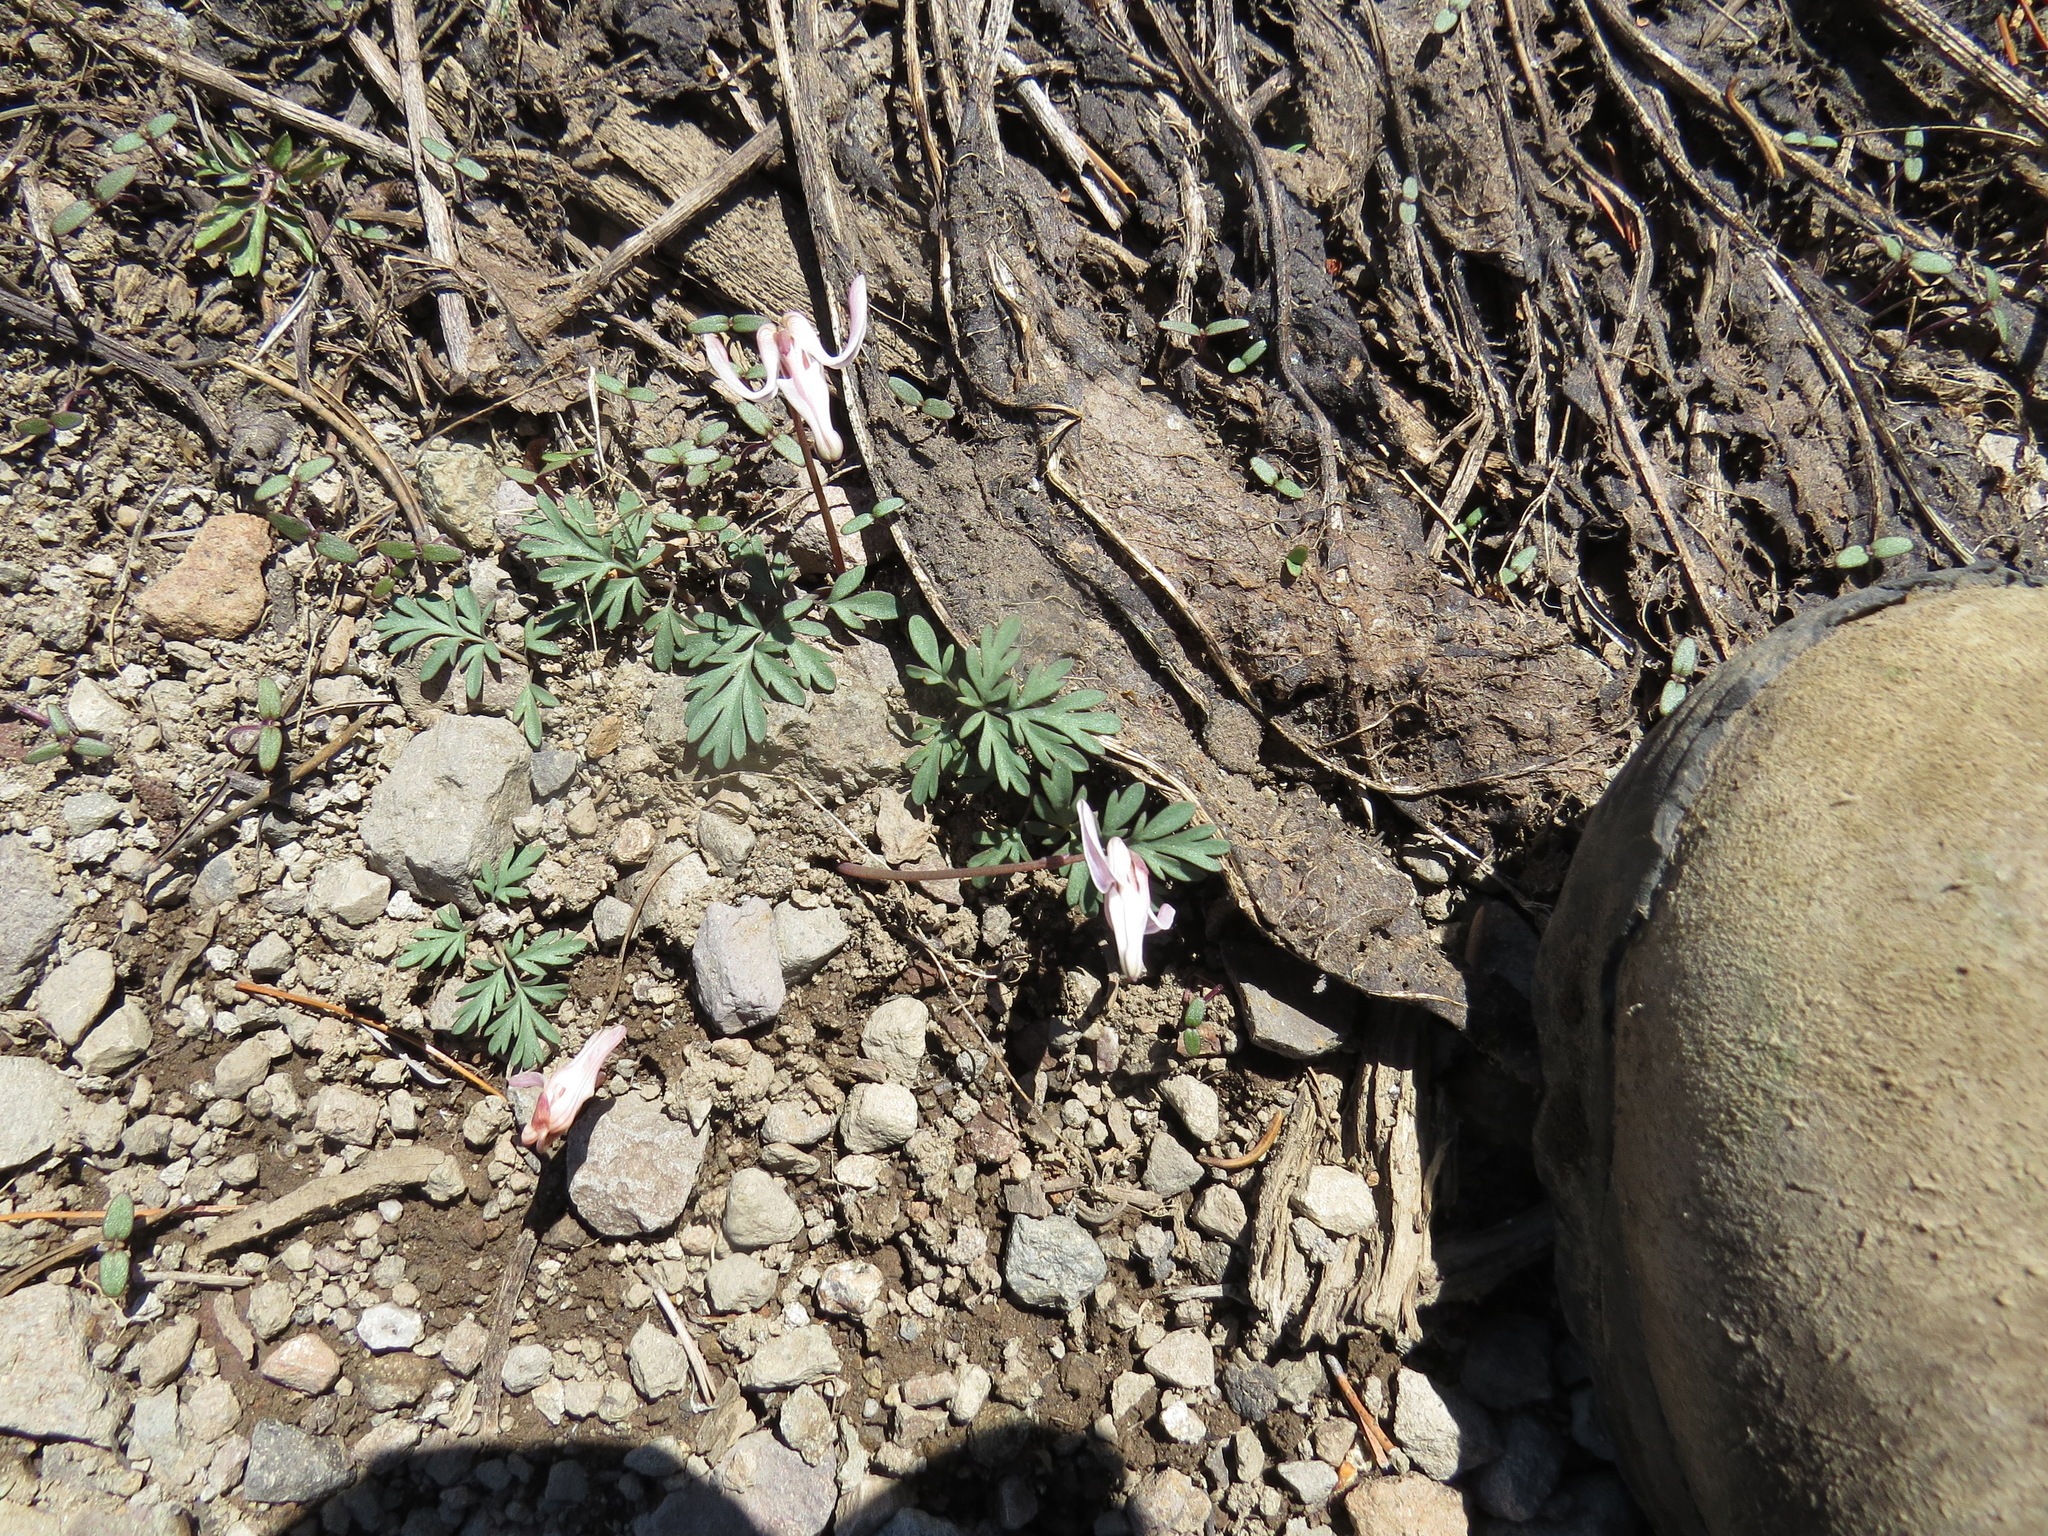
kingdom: Plantae
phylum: Tracheophyta
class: Magnoliopsida
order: Ranunculales
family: Papaveraceae
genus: Dicentra
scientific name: Dicentra uniflora
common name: Steer's-head
